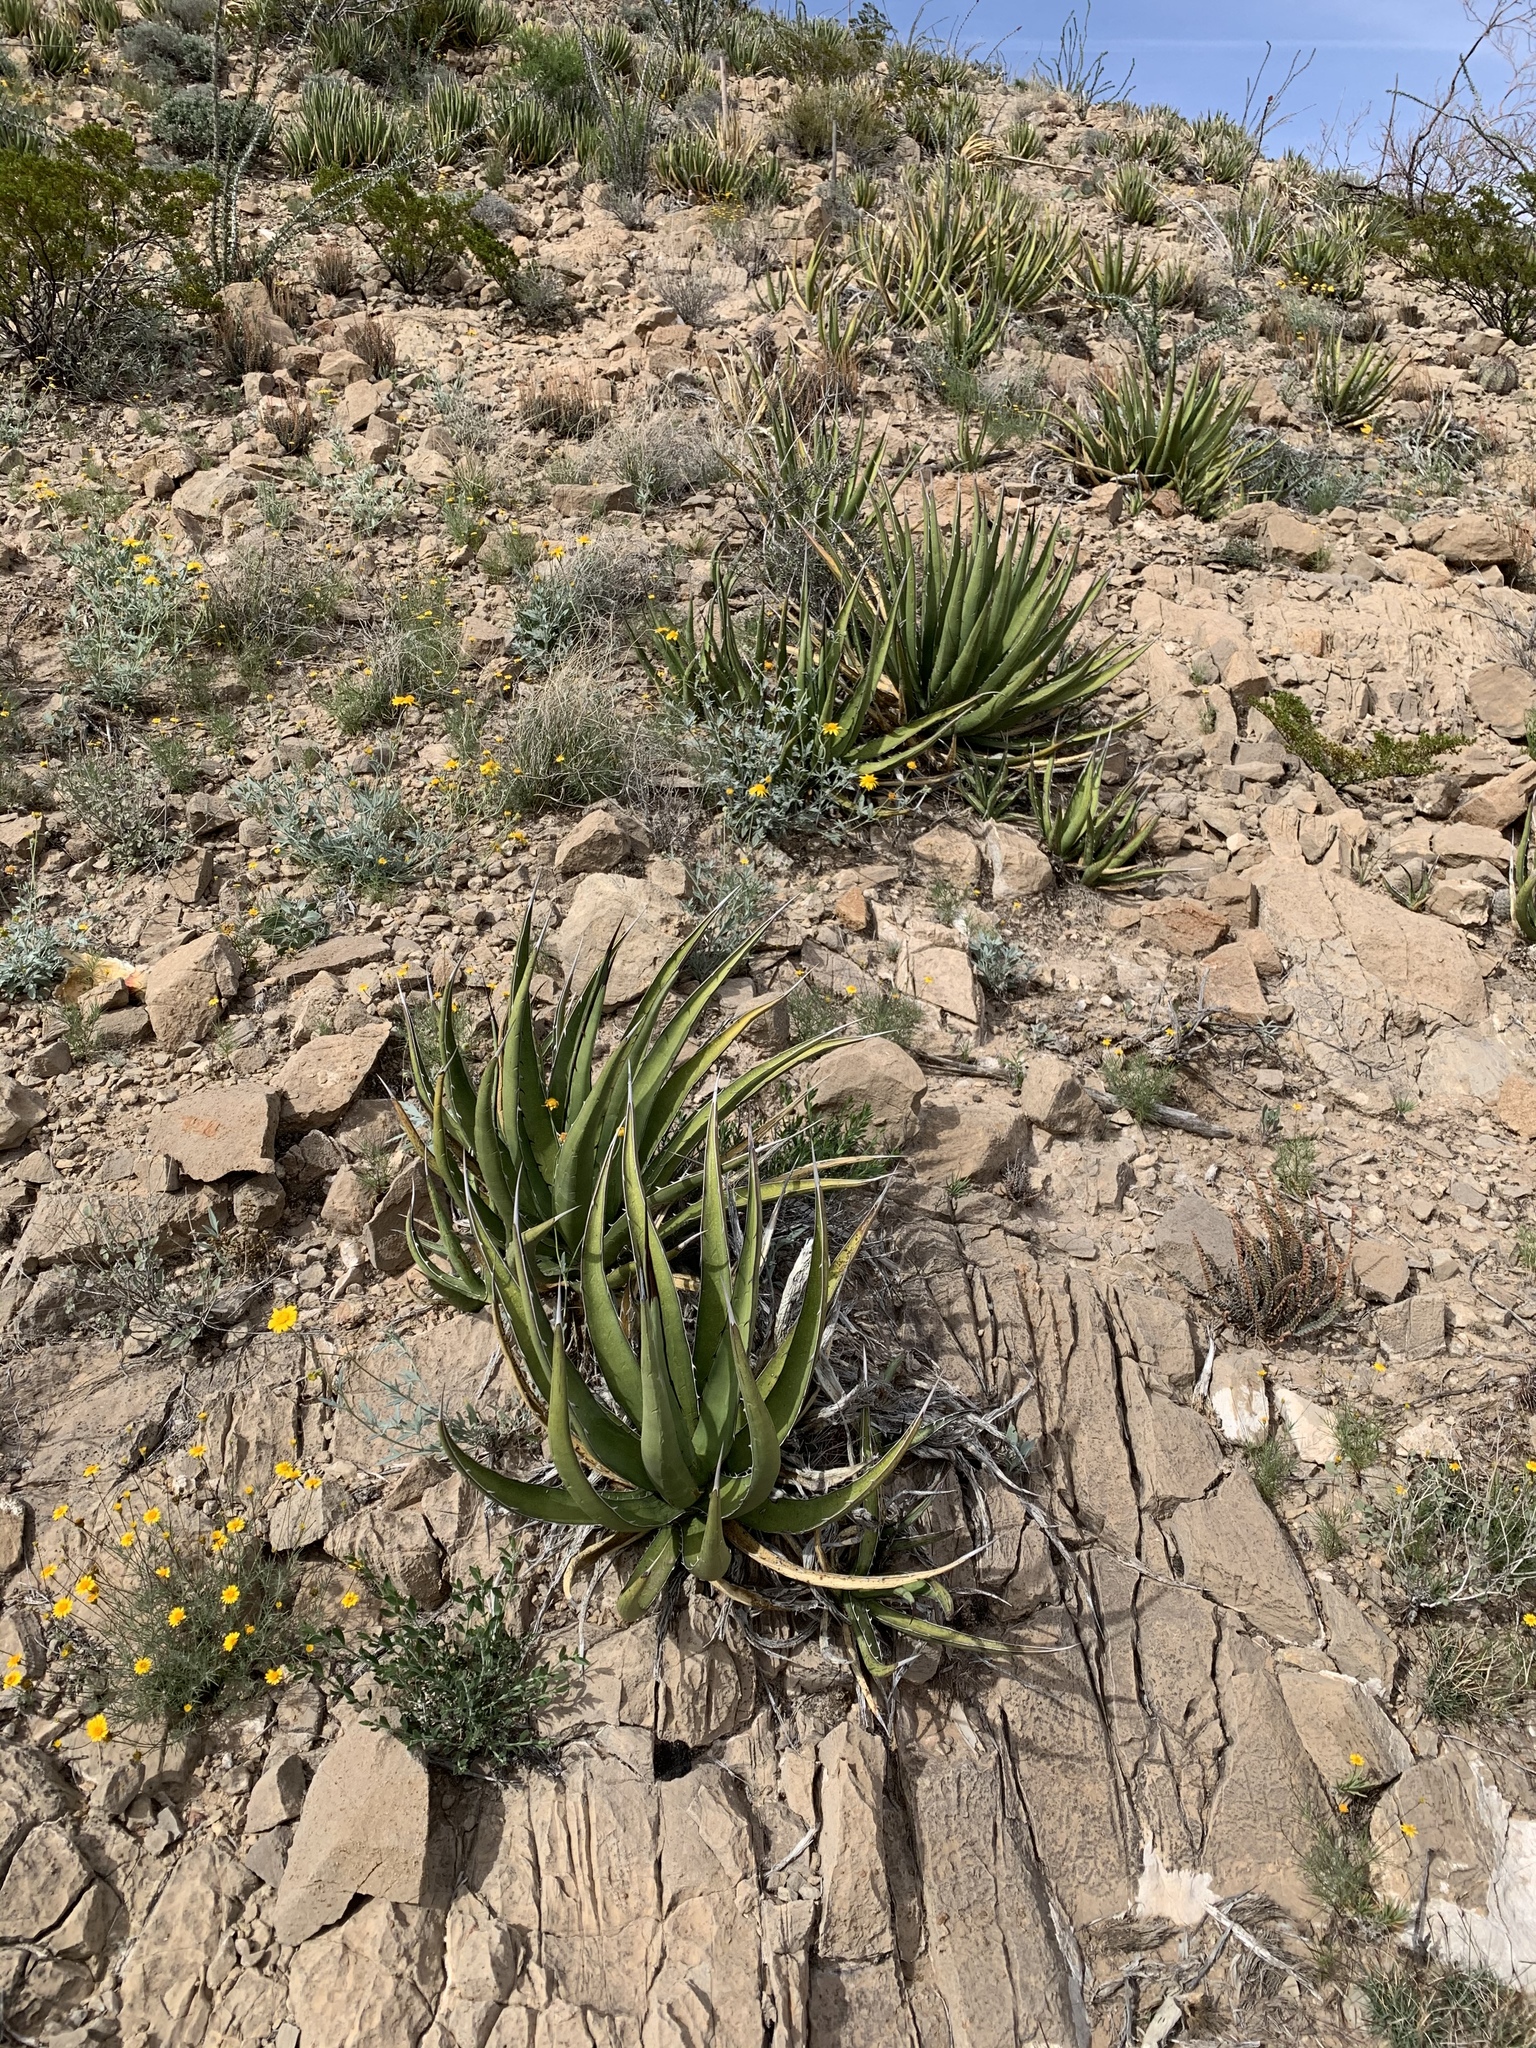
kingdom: Plantae
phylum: Tracheophyta
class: Liliopsida
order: Asparagales
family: Asparagaceae
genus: Agave
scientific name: Agave lechuguilla
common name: Lecheguilla agave
